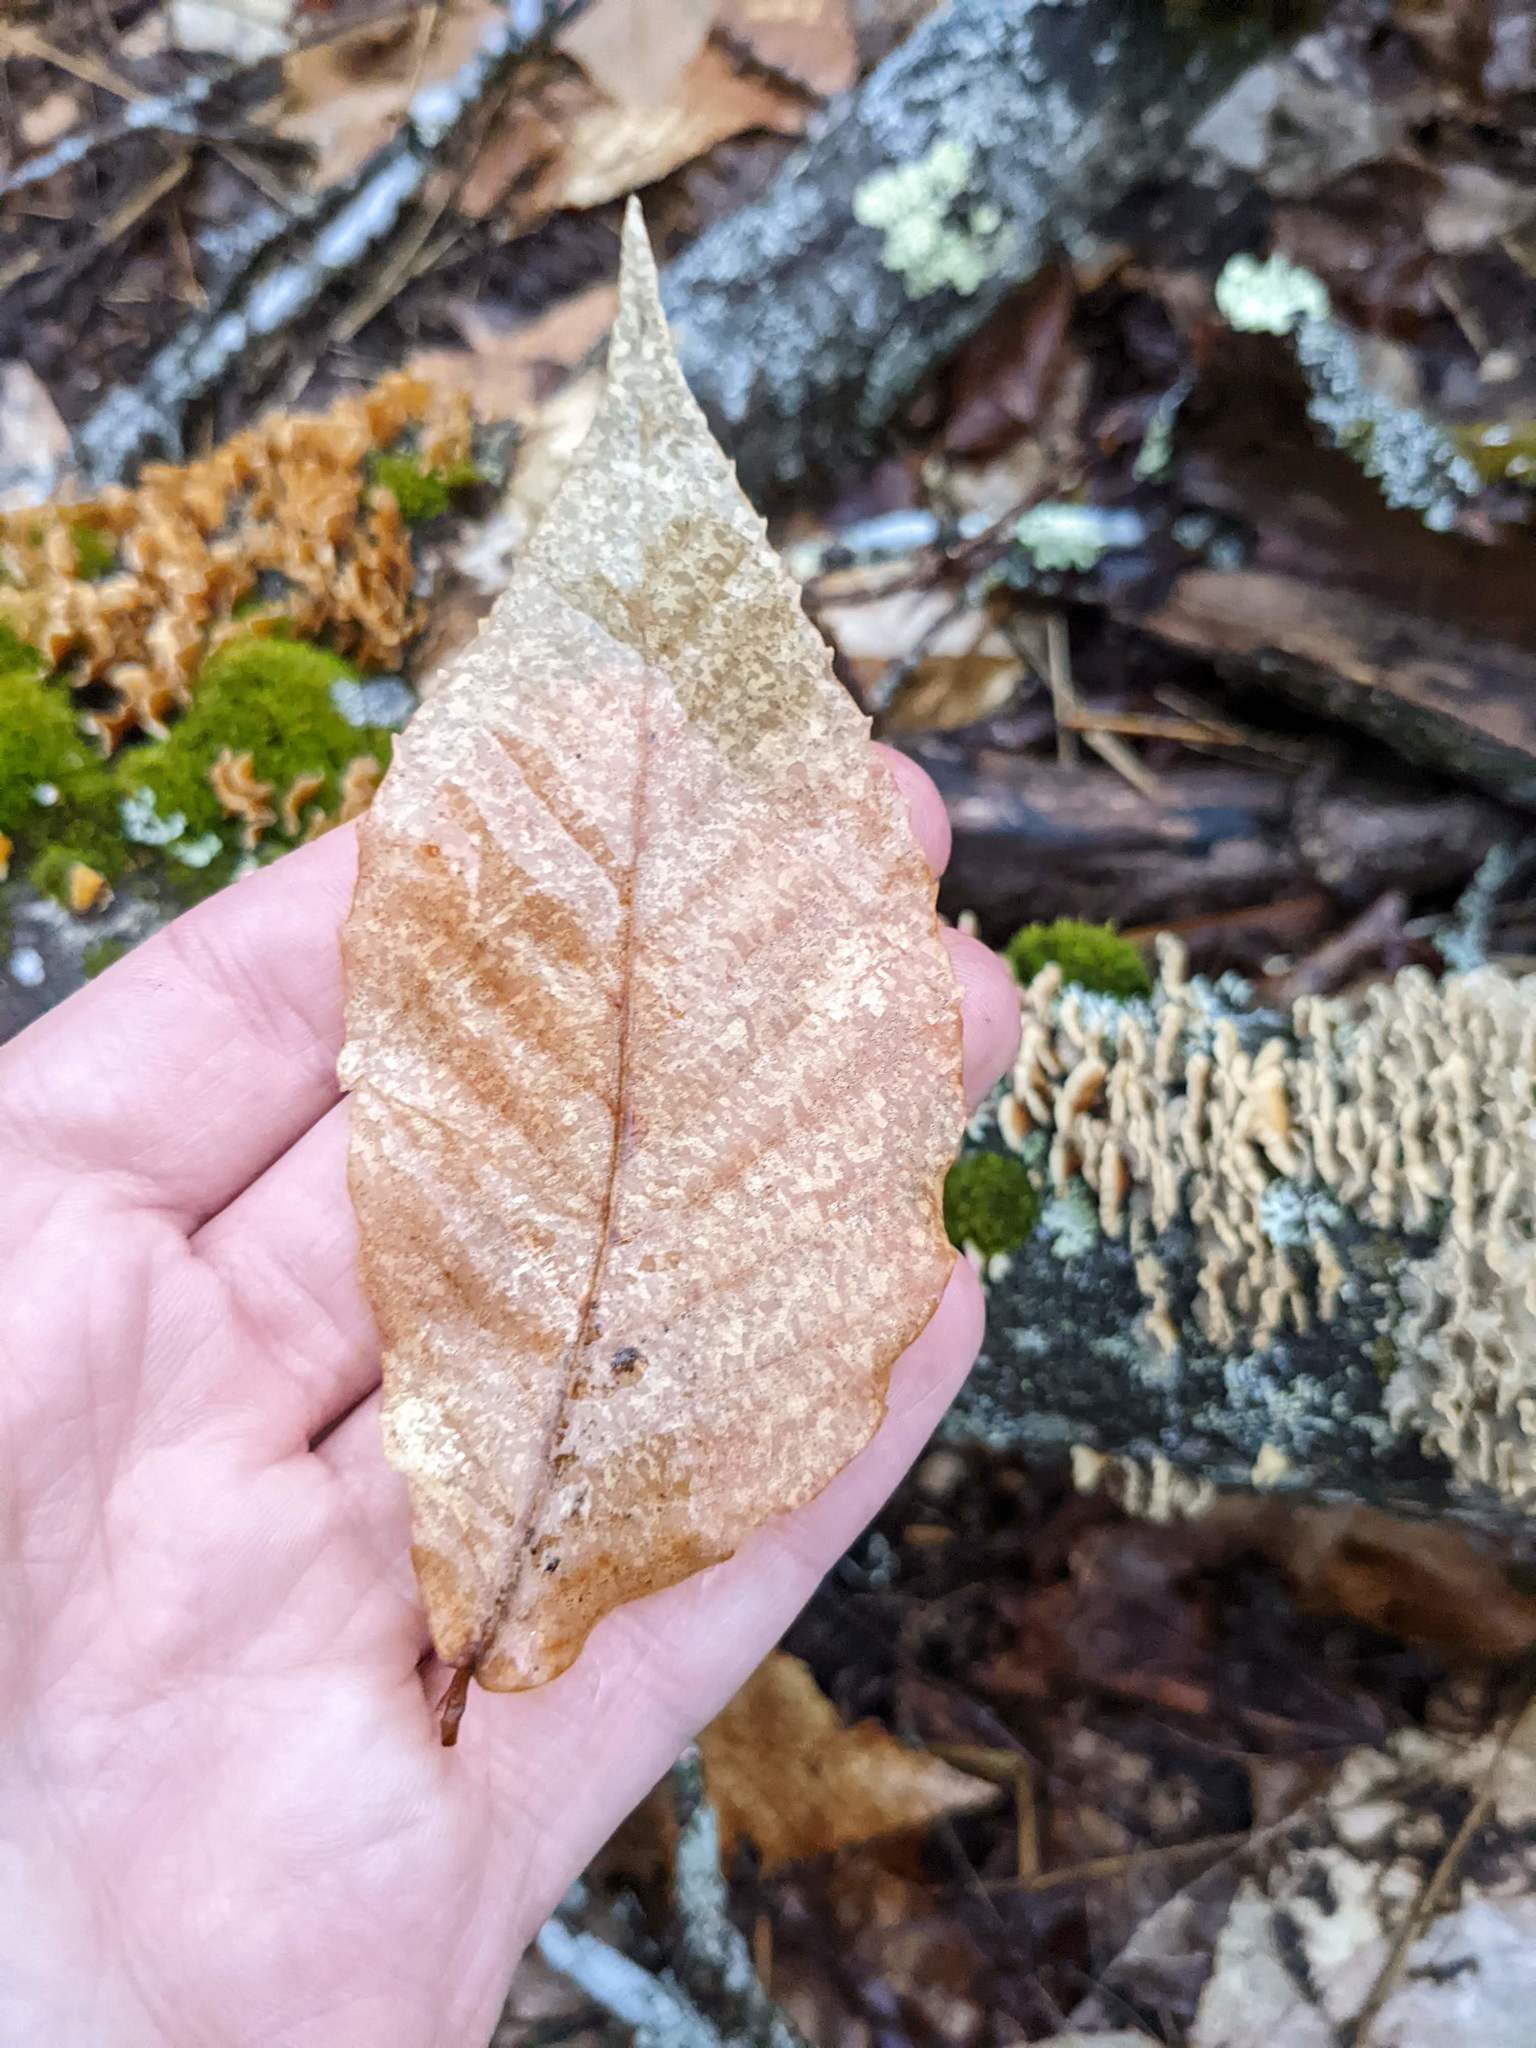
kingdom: Plantae
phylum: Tracheophyta
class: Magnoliopsida
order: Fagales
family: Fagaceae
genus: Fagus
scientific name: Fagus grandifolia
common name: American beech
